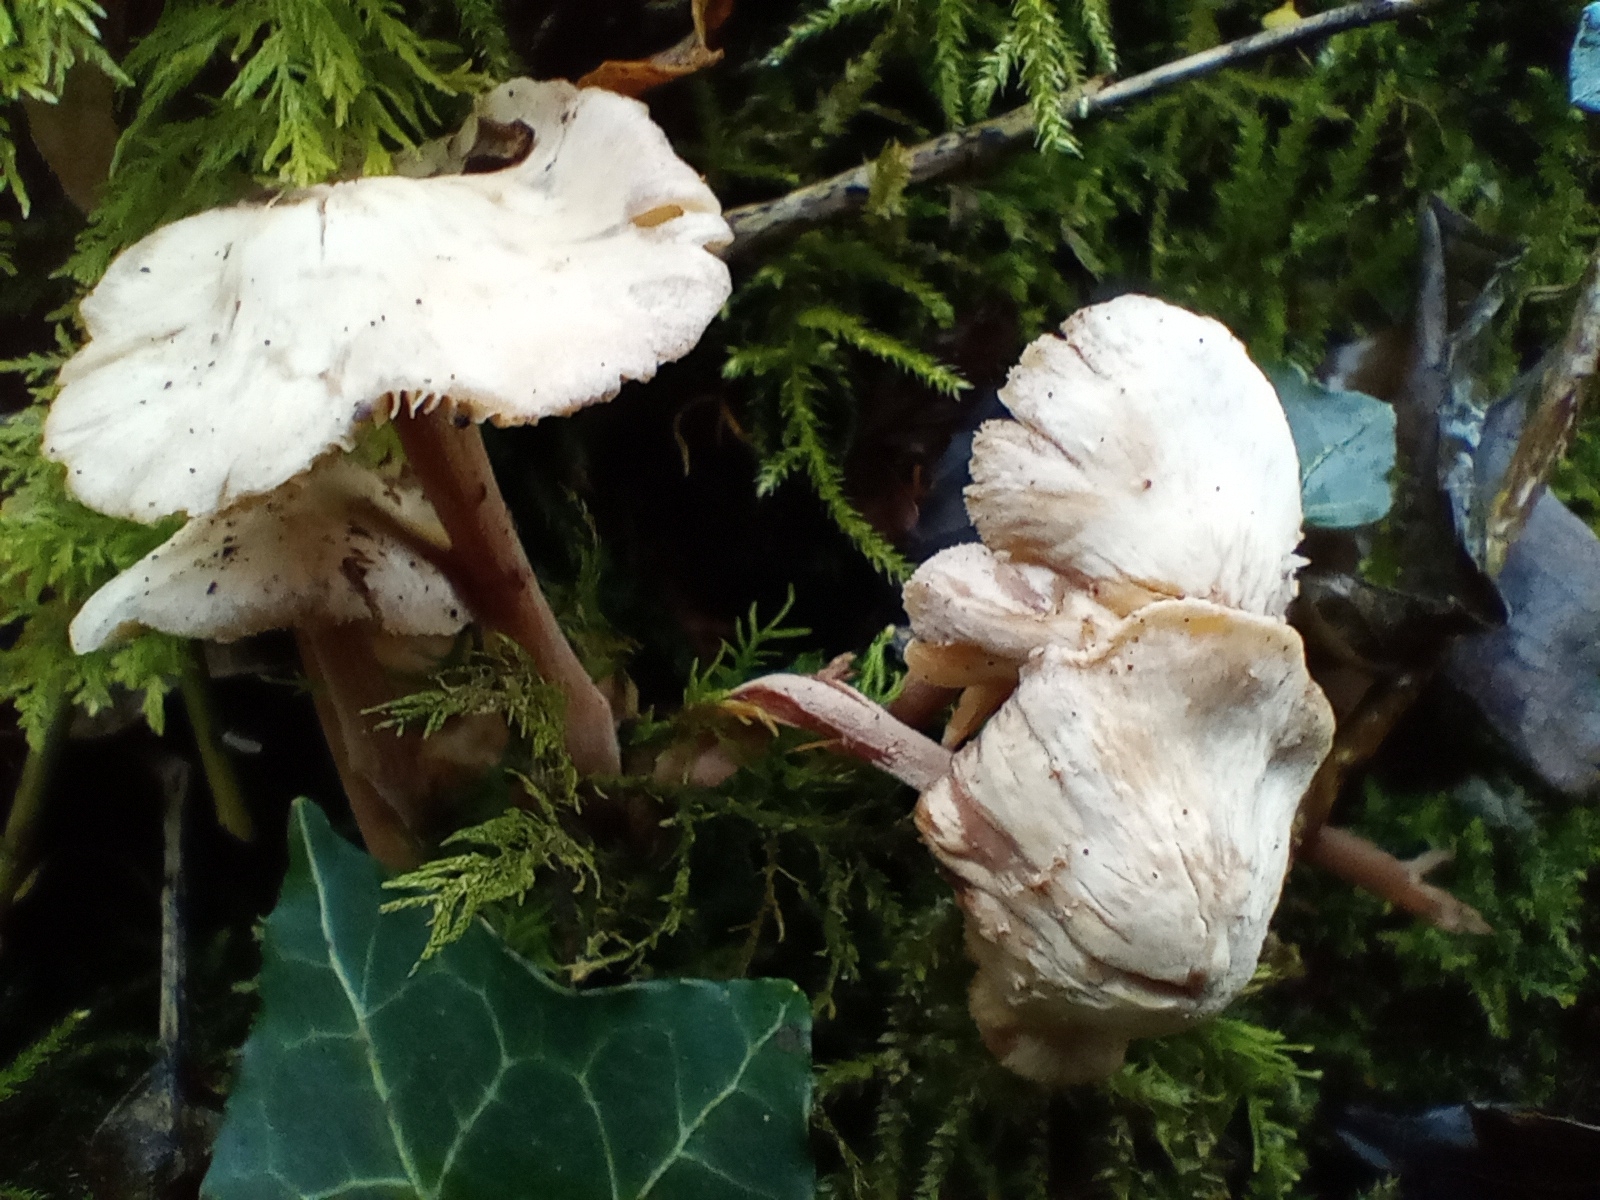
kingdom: Fungi
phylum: Basidiomycota
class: Agaricomycetes
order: Agaricales
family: Omphalotaceae
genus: Collybiopsis
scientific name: Collybiopsis confluens
